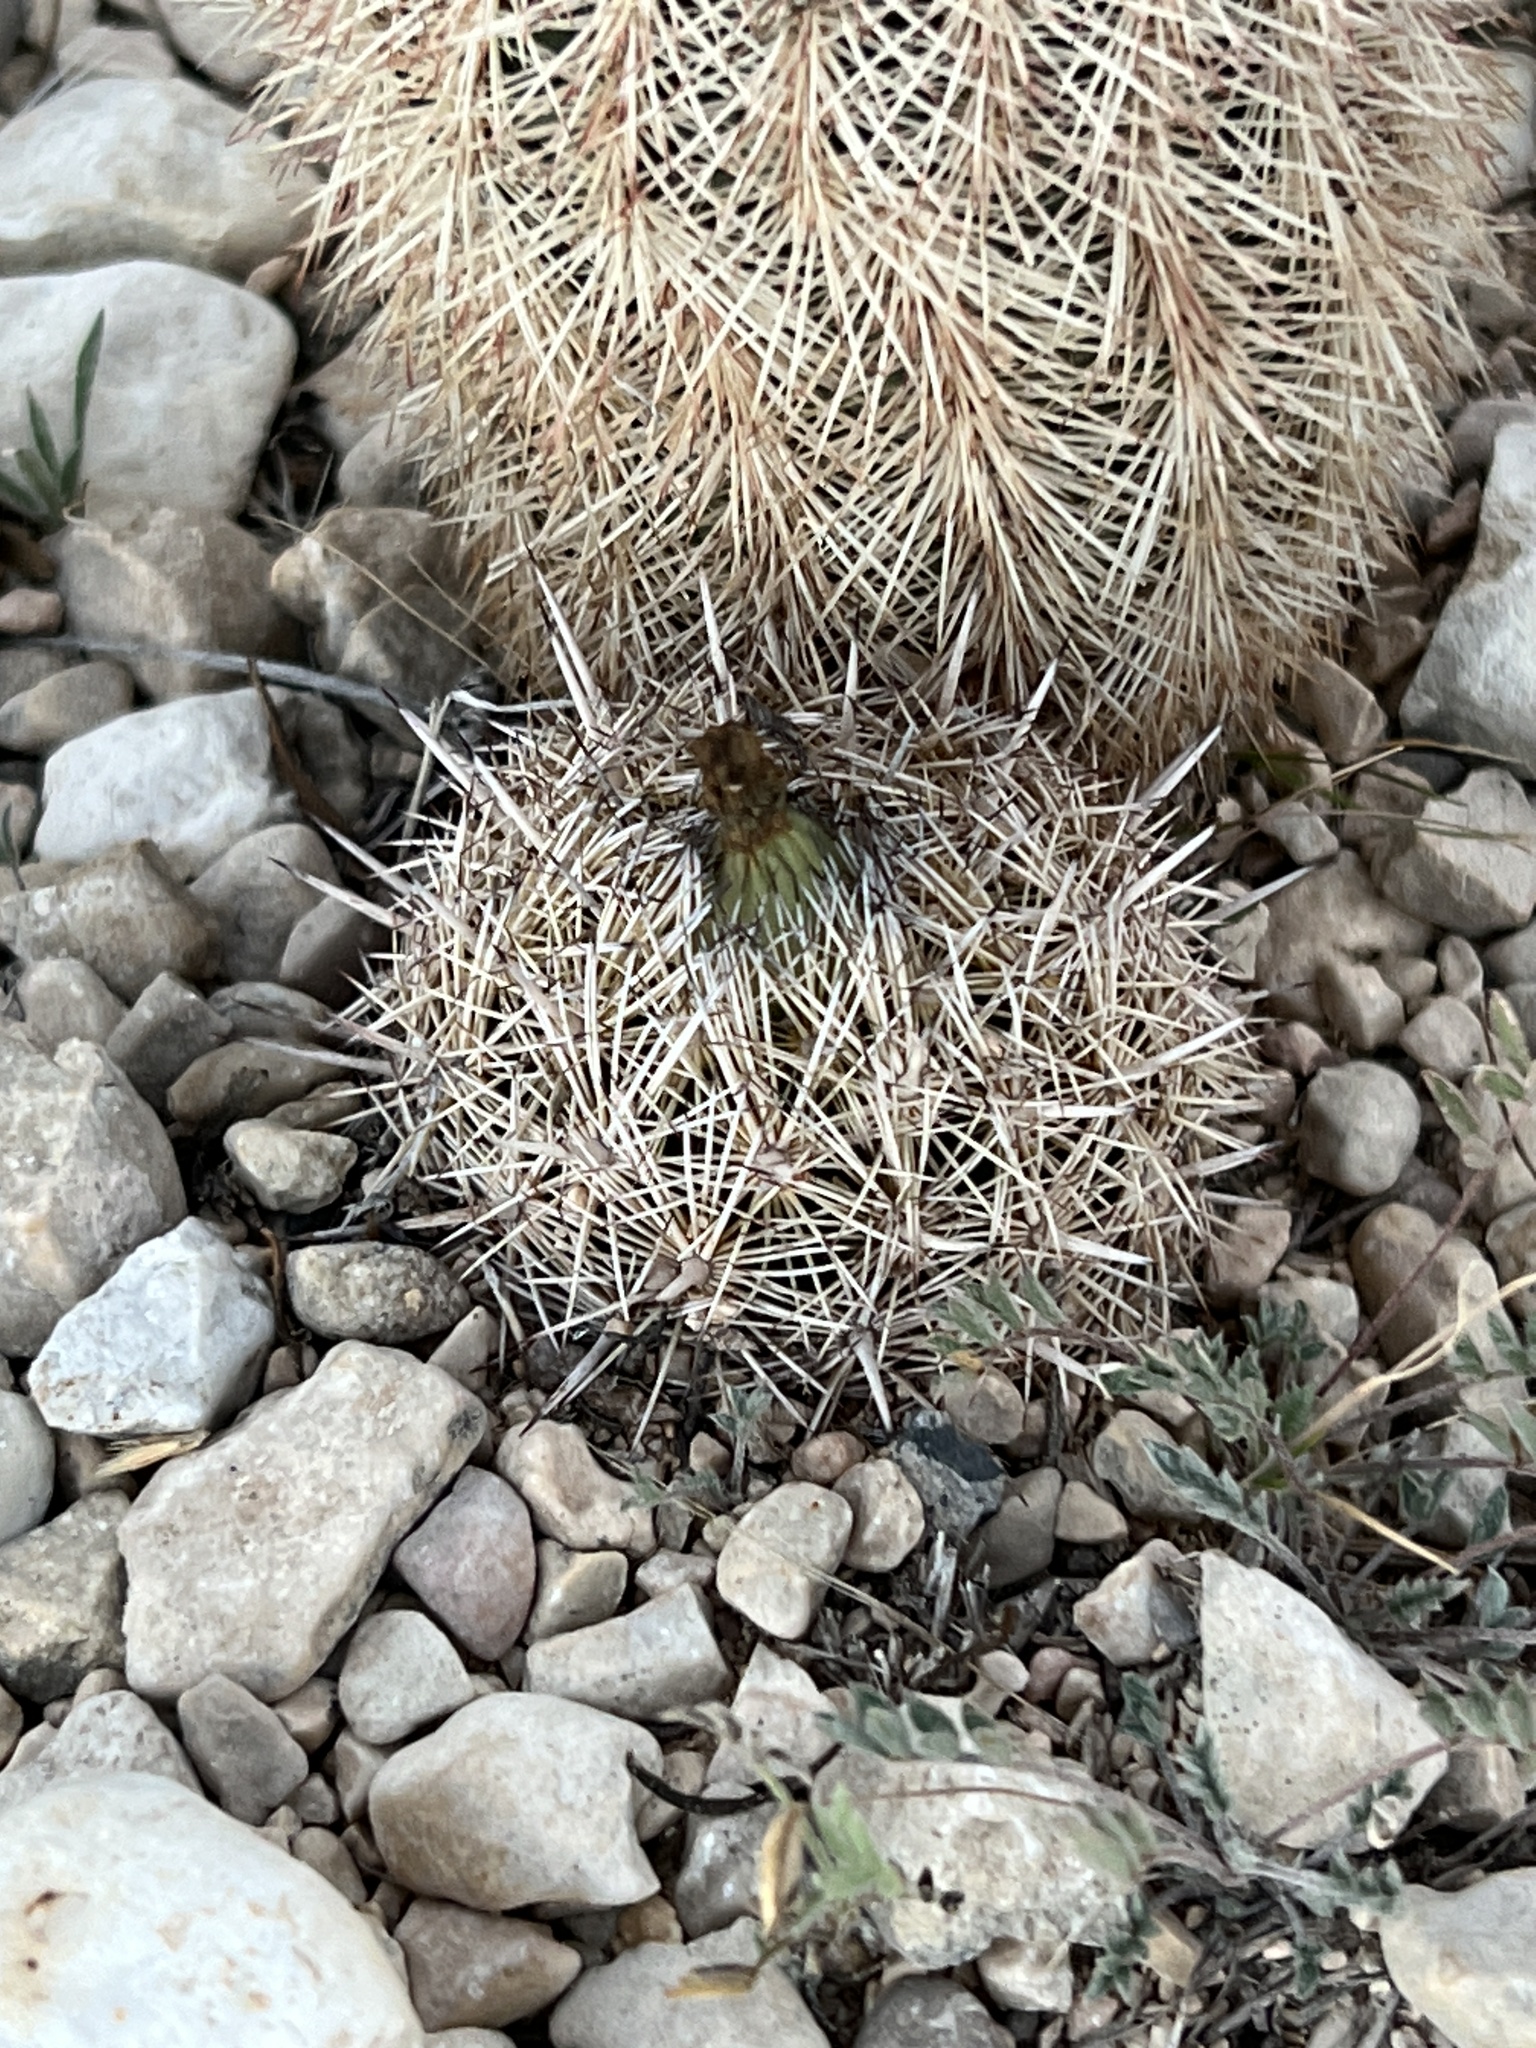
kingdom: Plantae
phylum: Tracheophyta
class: Magnoliopsida
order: Caryophyllales
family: Cactaceae
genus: Coryphantha
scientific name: Coryphantha echinus
